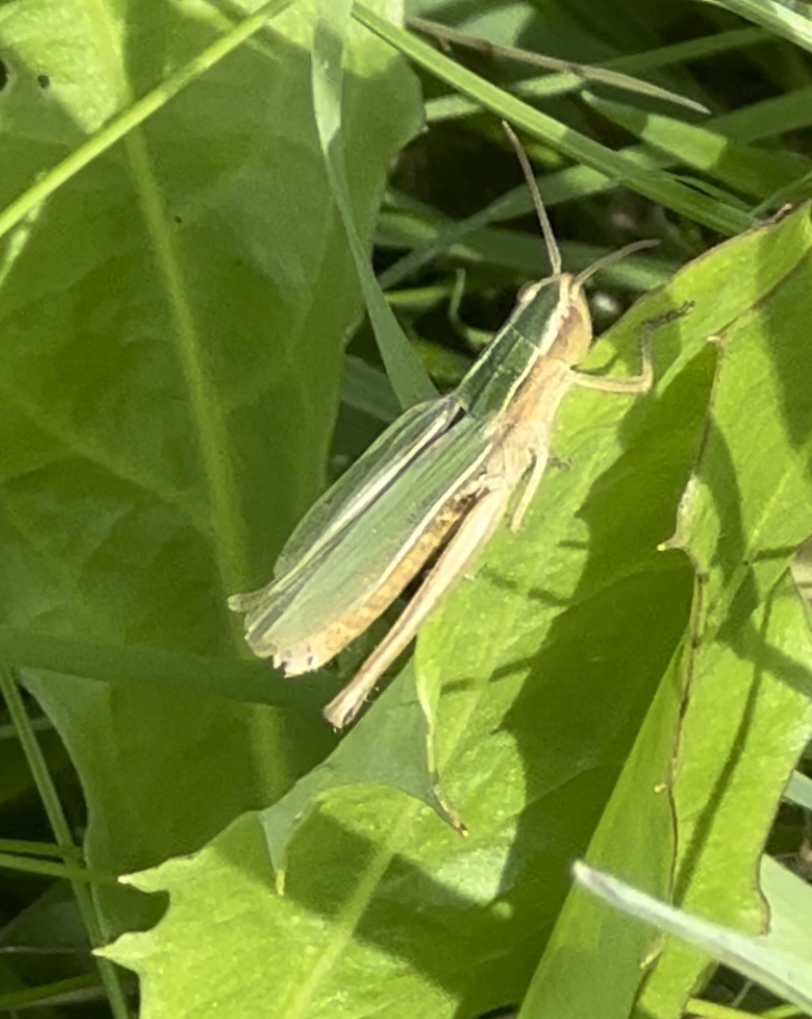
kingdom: Animalia
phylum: Arthropoda
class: Insecta
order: Orthoptera
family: Acrididae
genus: Chorthippus
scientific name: Chorthippus albomarginatus
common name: Lesser marsh grasshopper
